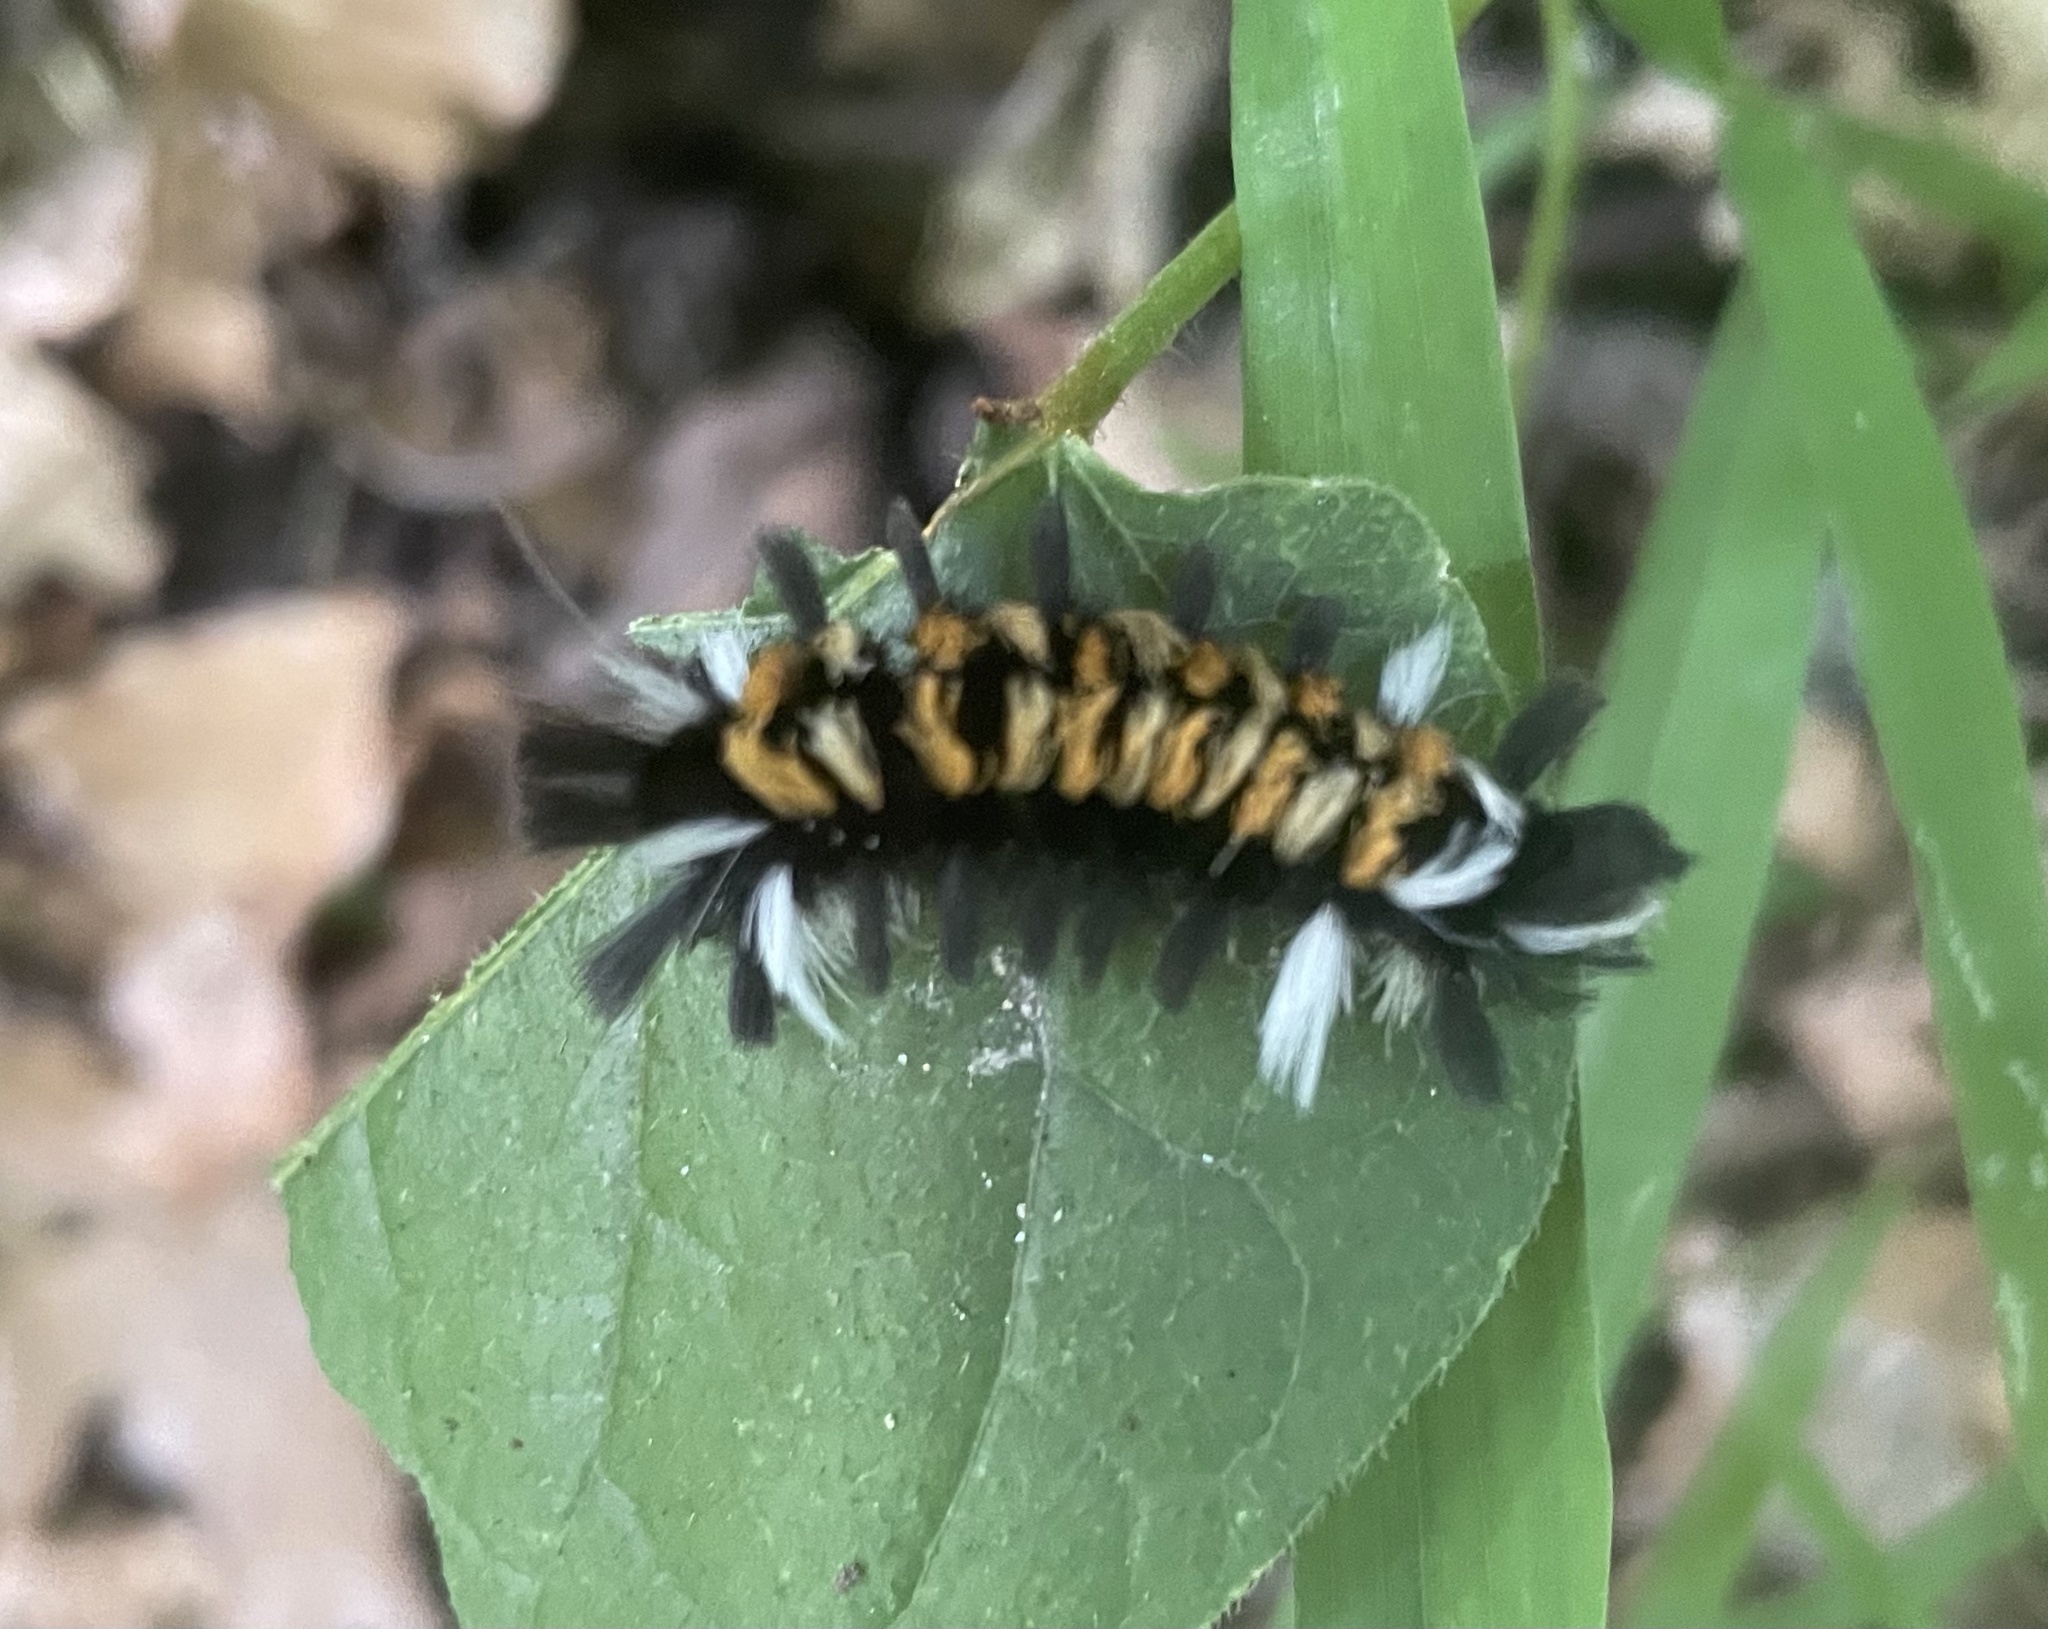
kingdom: Animalia
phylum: Arthropoda
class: Insecta
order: Lepidoptera
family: Erebidae
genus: Euchaetes
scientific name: Euchaetes egle
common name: Milkweed tussock moth
